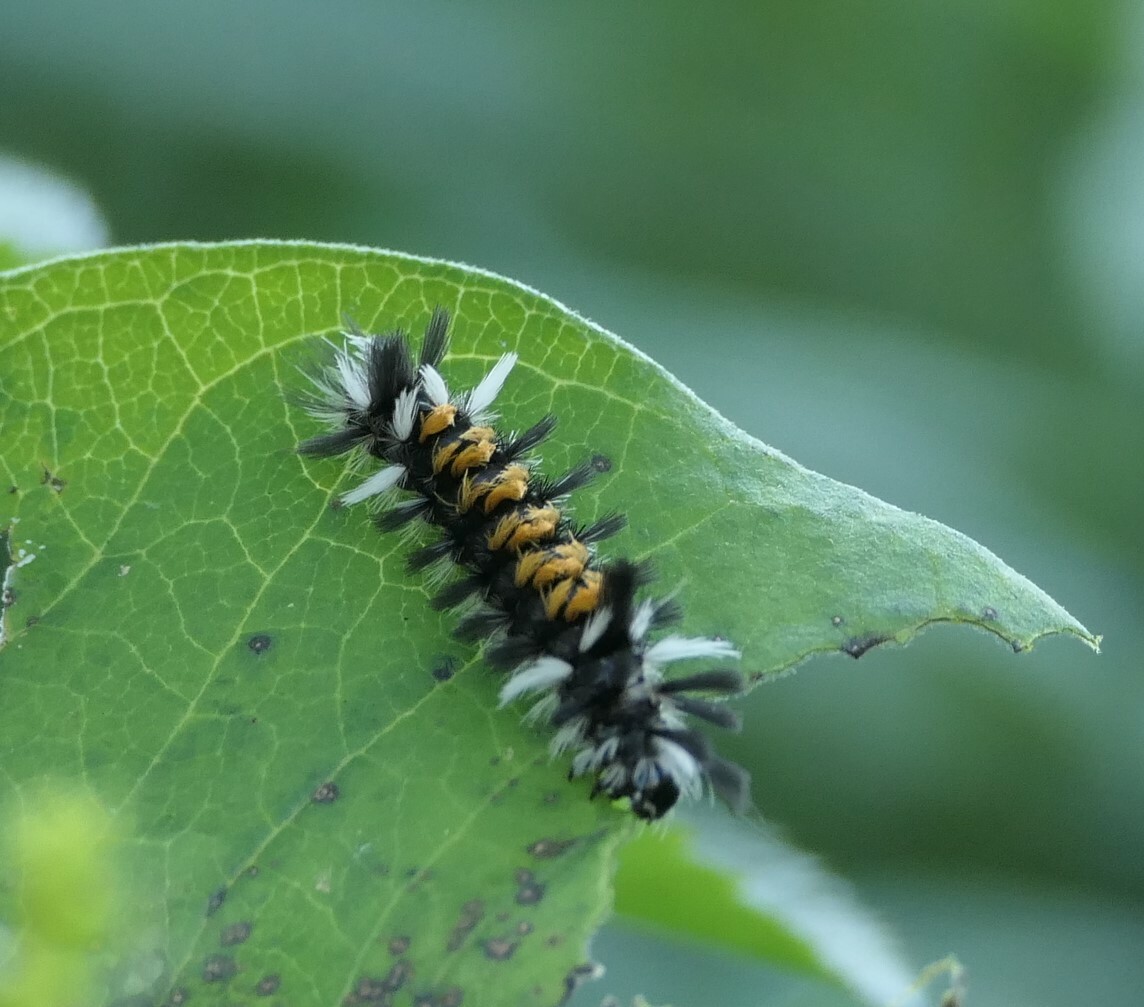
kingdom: Animalia
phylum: Arthropoda
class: Insecta
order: Lepidoptera
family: Erebidae
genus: Euchaetes
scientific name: Euchaetes egle
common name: Milkweed tussock moth
